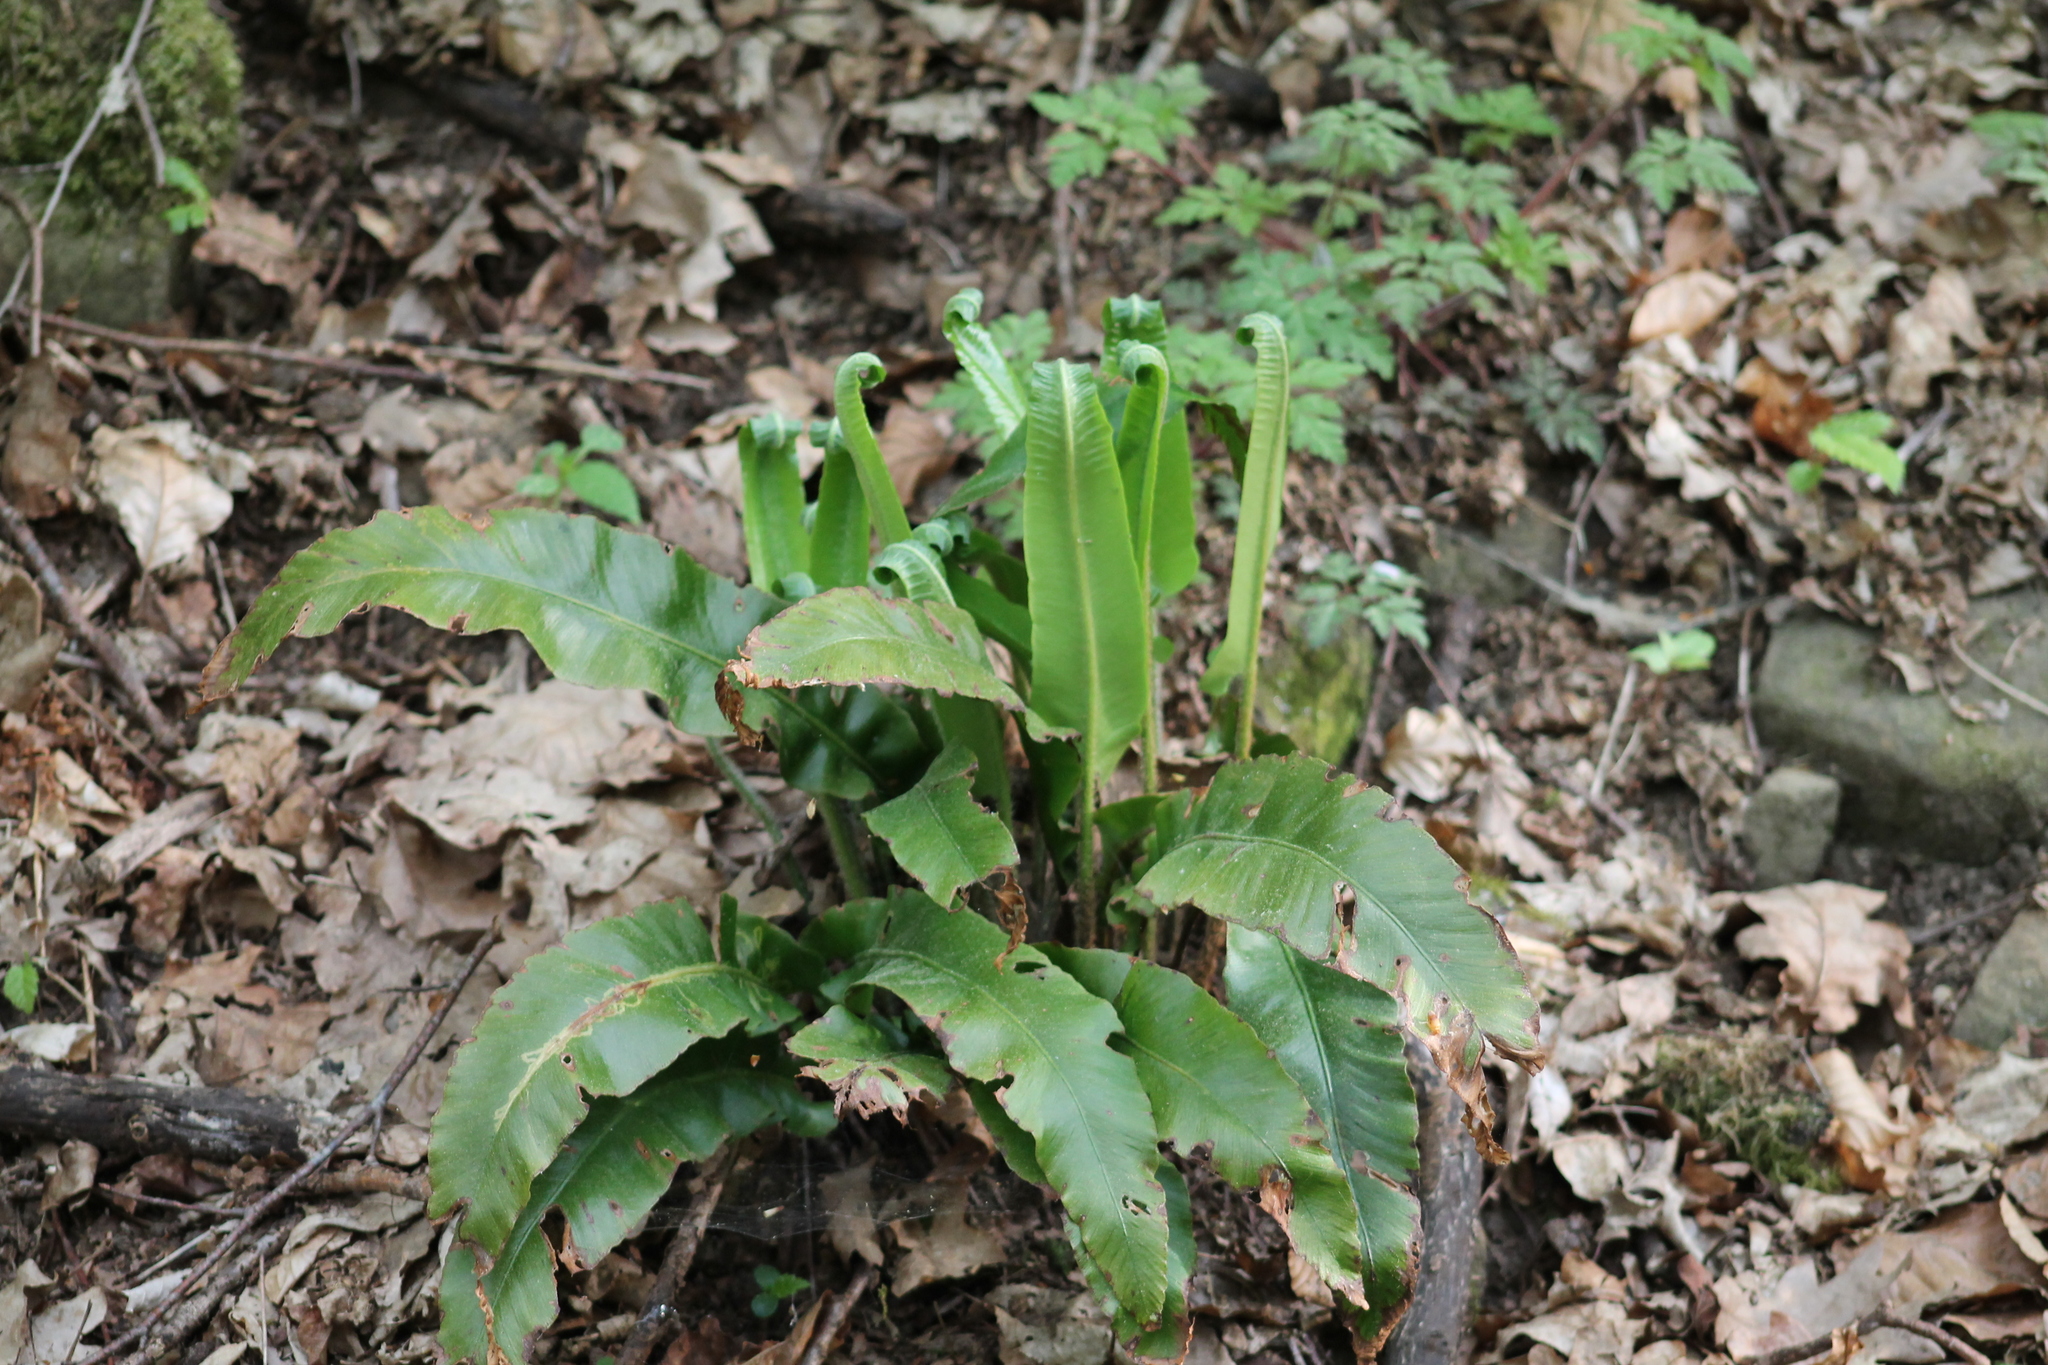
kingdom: Plantae
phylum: Tracheophyta
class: Polypodiopsida
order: Polypodiales
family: Aspleniaceae
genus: Asplenium
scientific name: Asplenium scolopendrium
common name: Hart's-tongue fern
